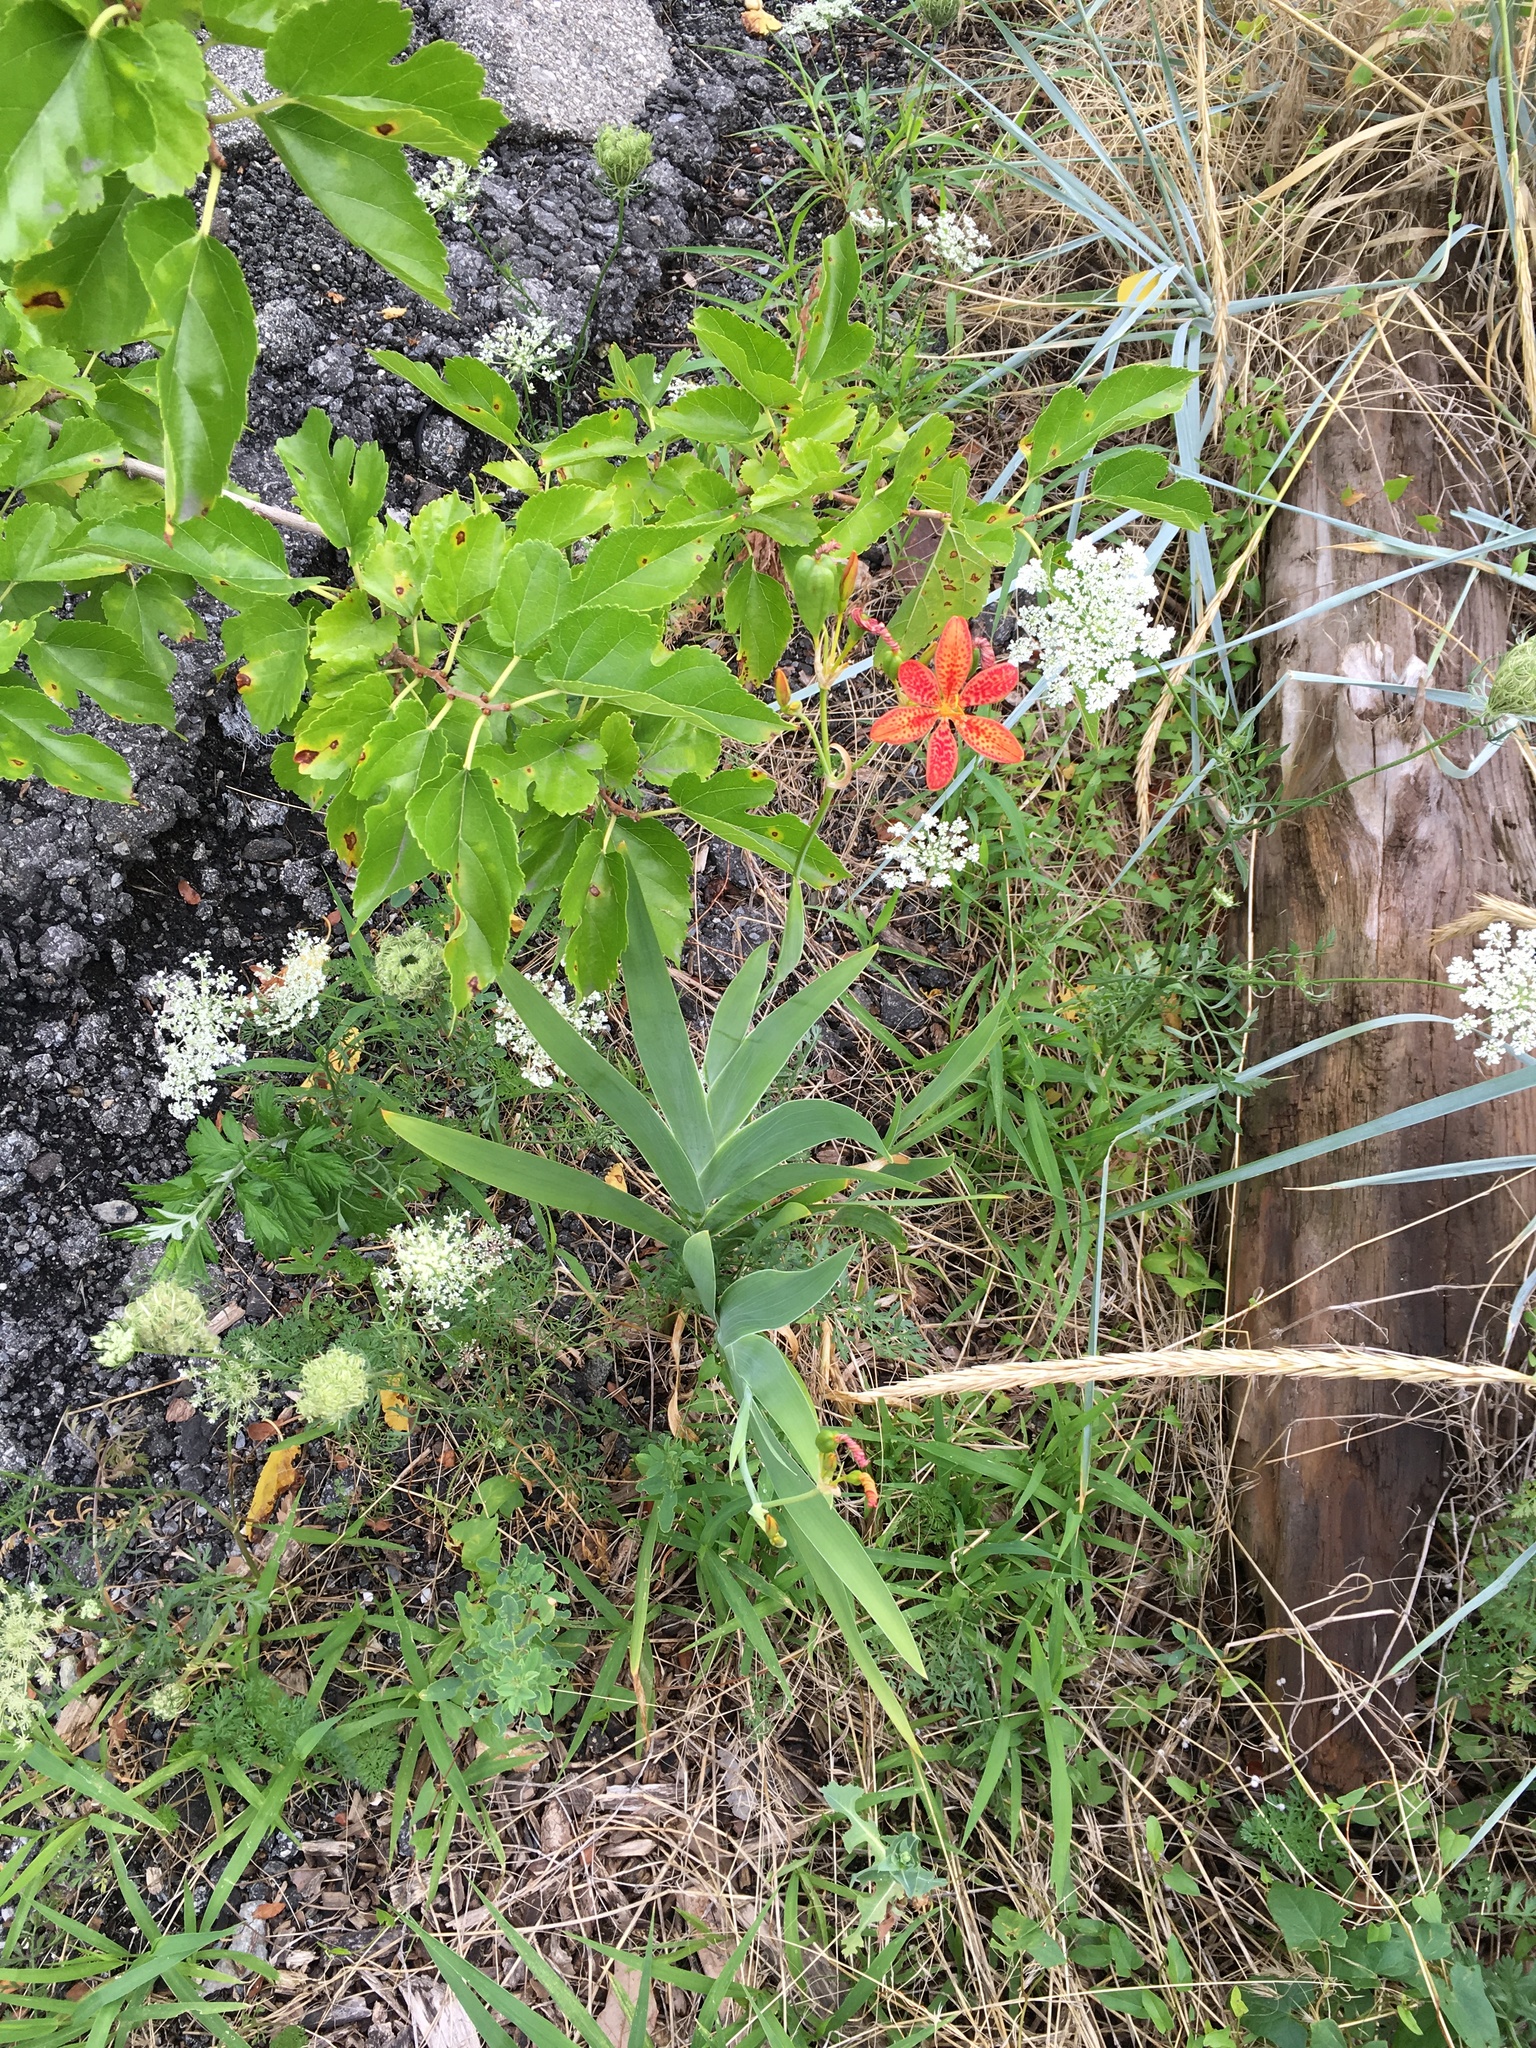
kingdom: Plantae
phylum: Tracheophyta
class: Liliopsida
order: Asparagales
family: Iridaceae
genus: Iris
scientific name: Iris domestica
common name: Belamcanda
